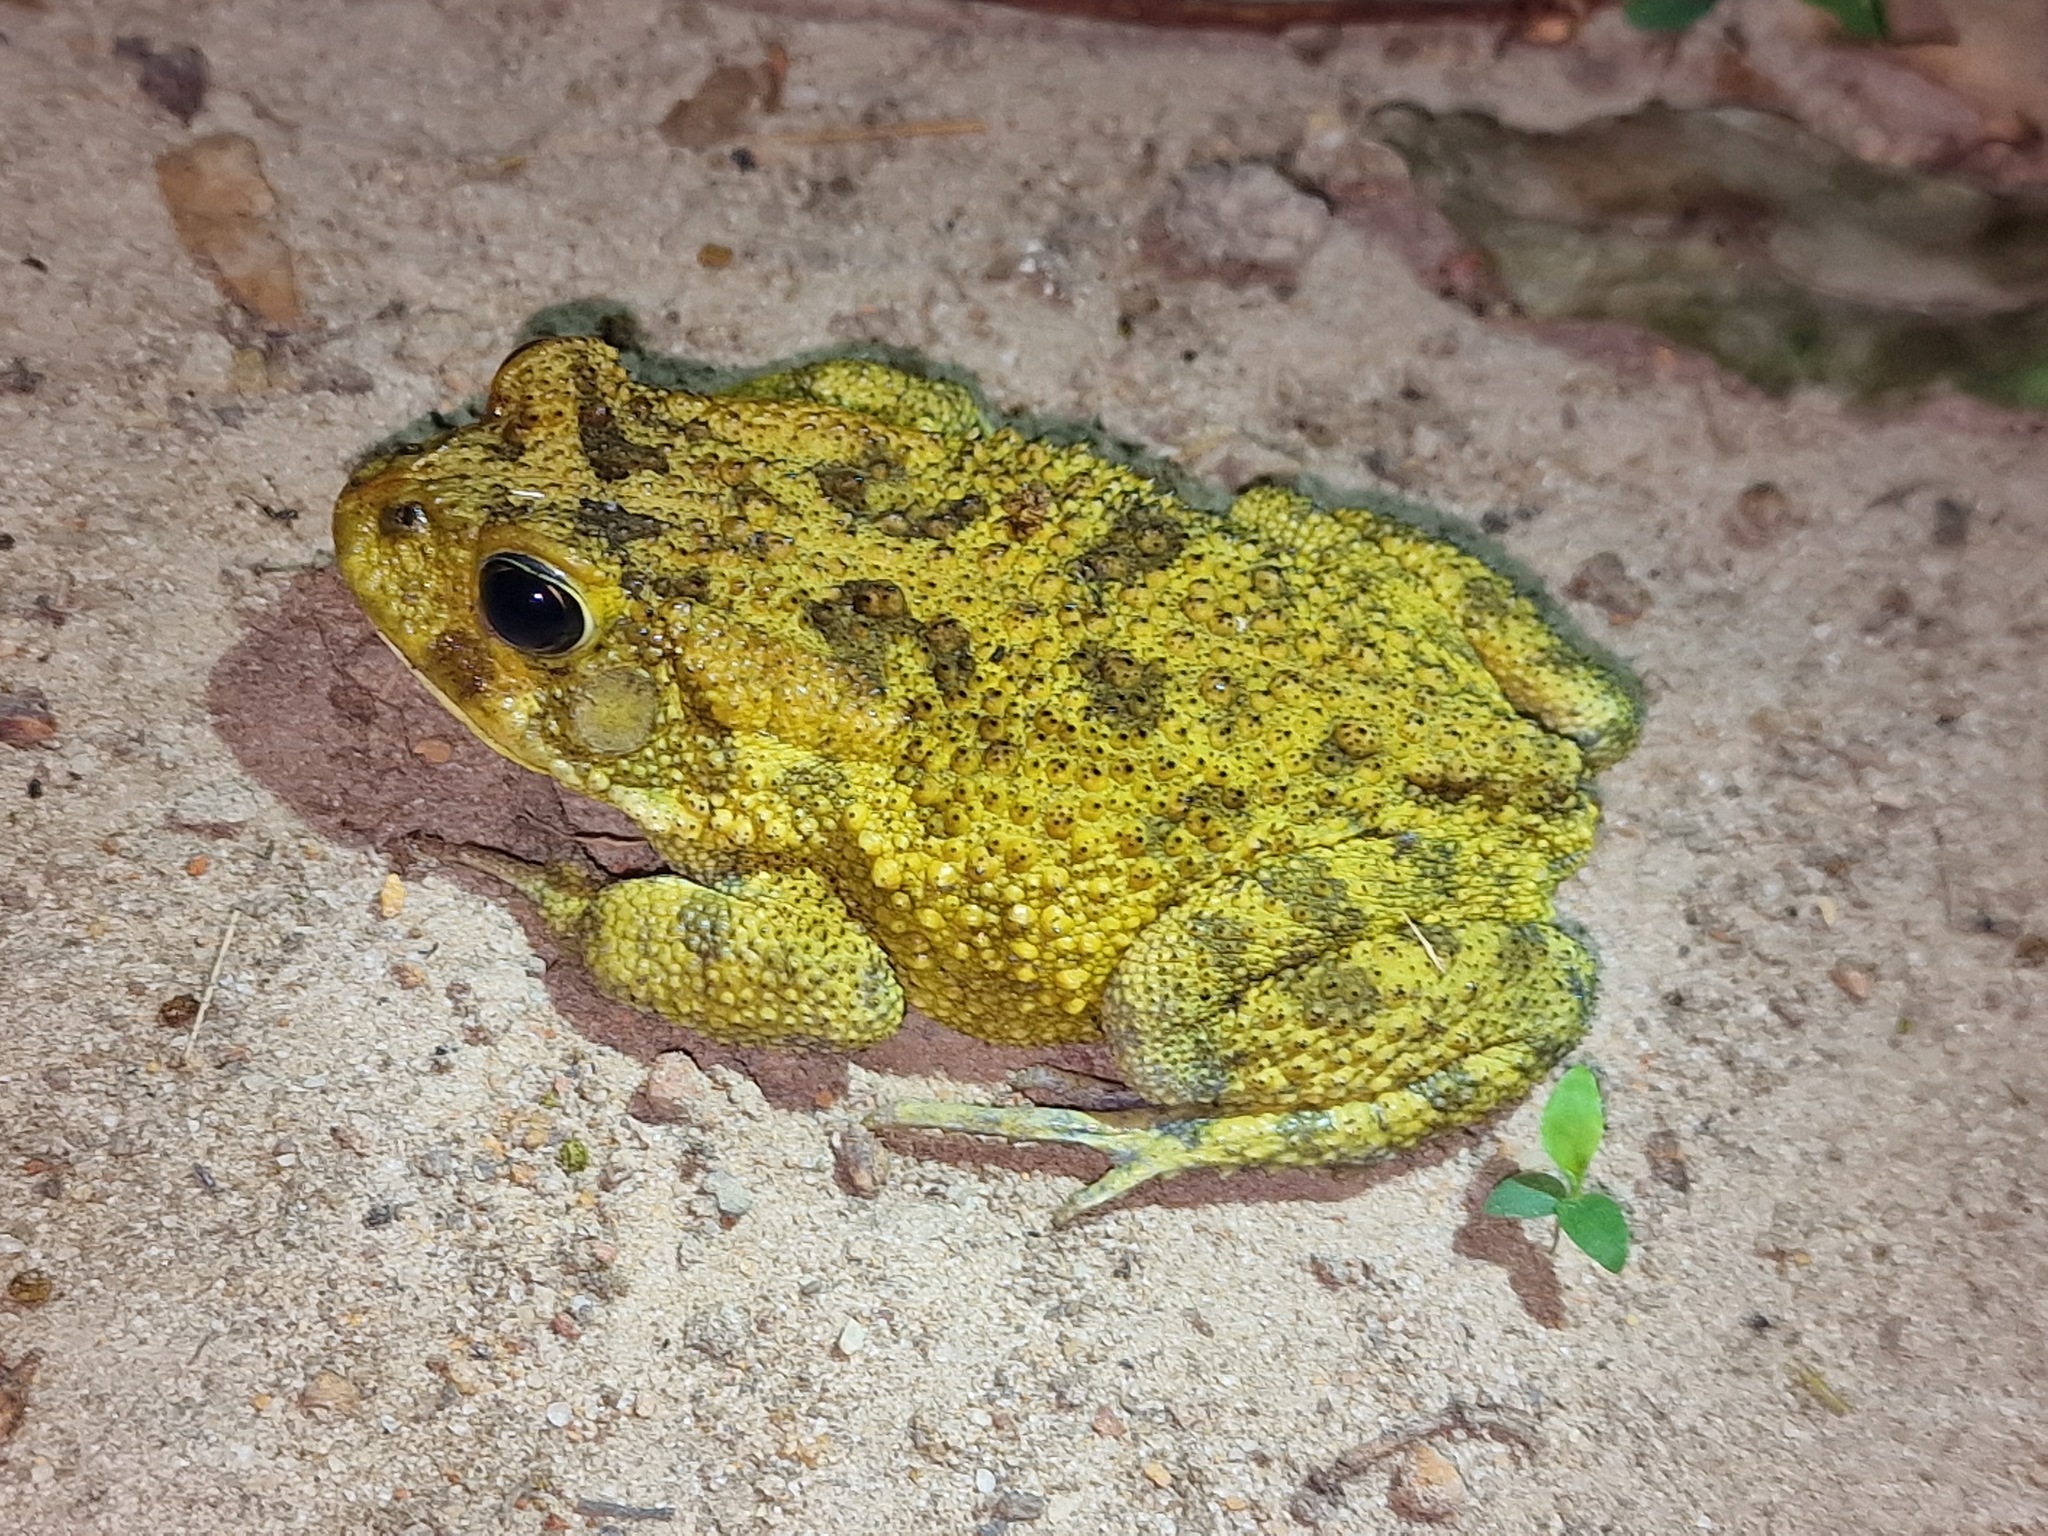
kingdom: Animalia
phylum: Chordata
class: Amphibia
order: Anura
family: Bufonidae
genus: Sclerophrys
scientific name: Sclerophrys gutturalis
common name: African common toad
